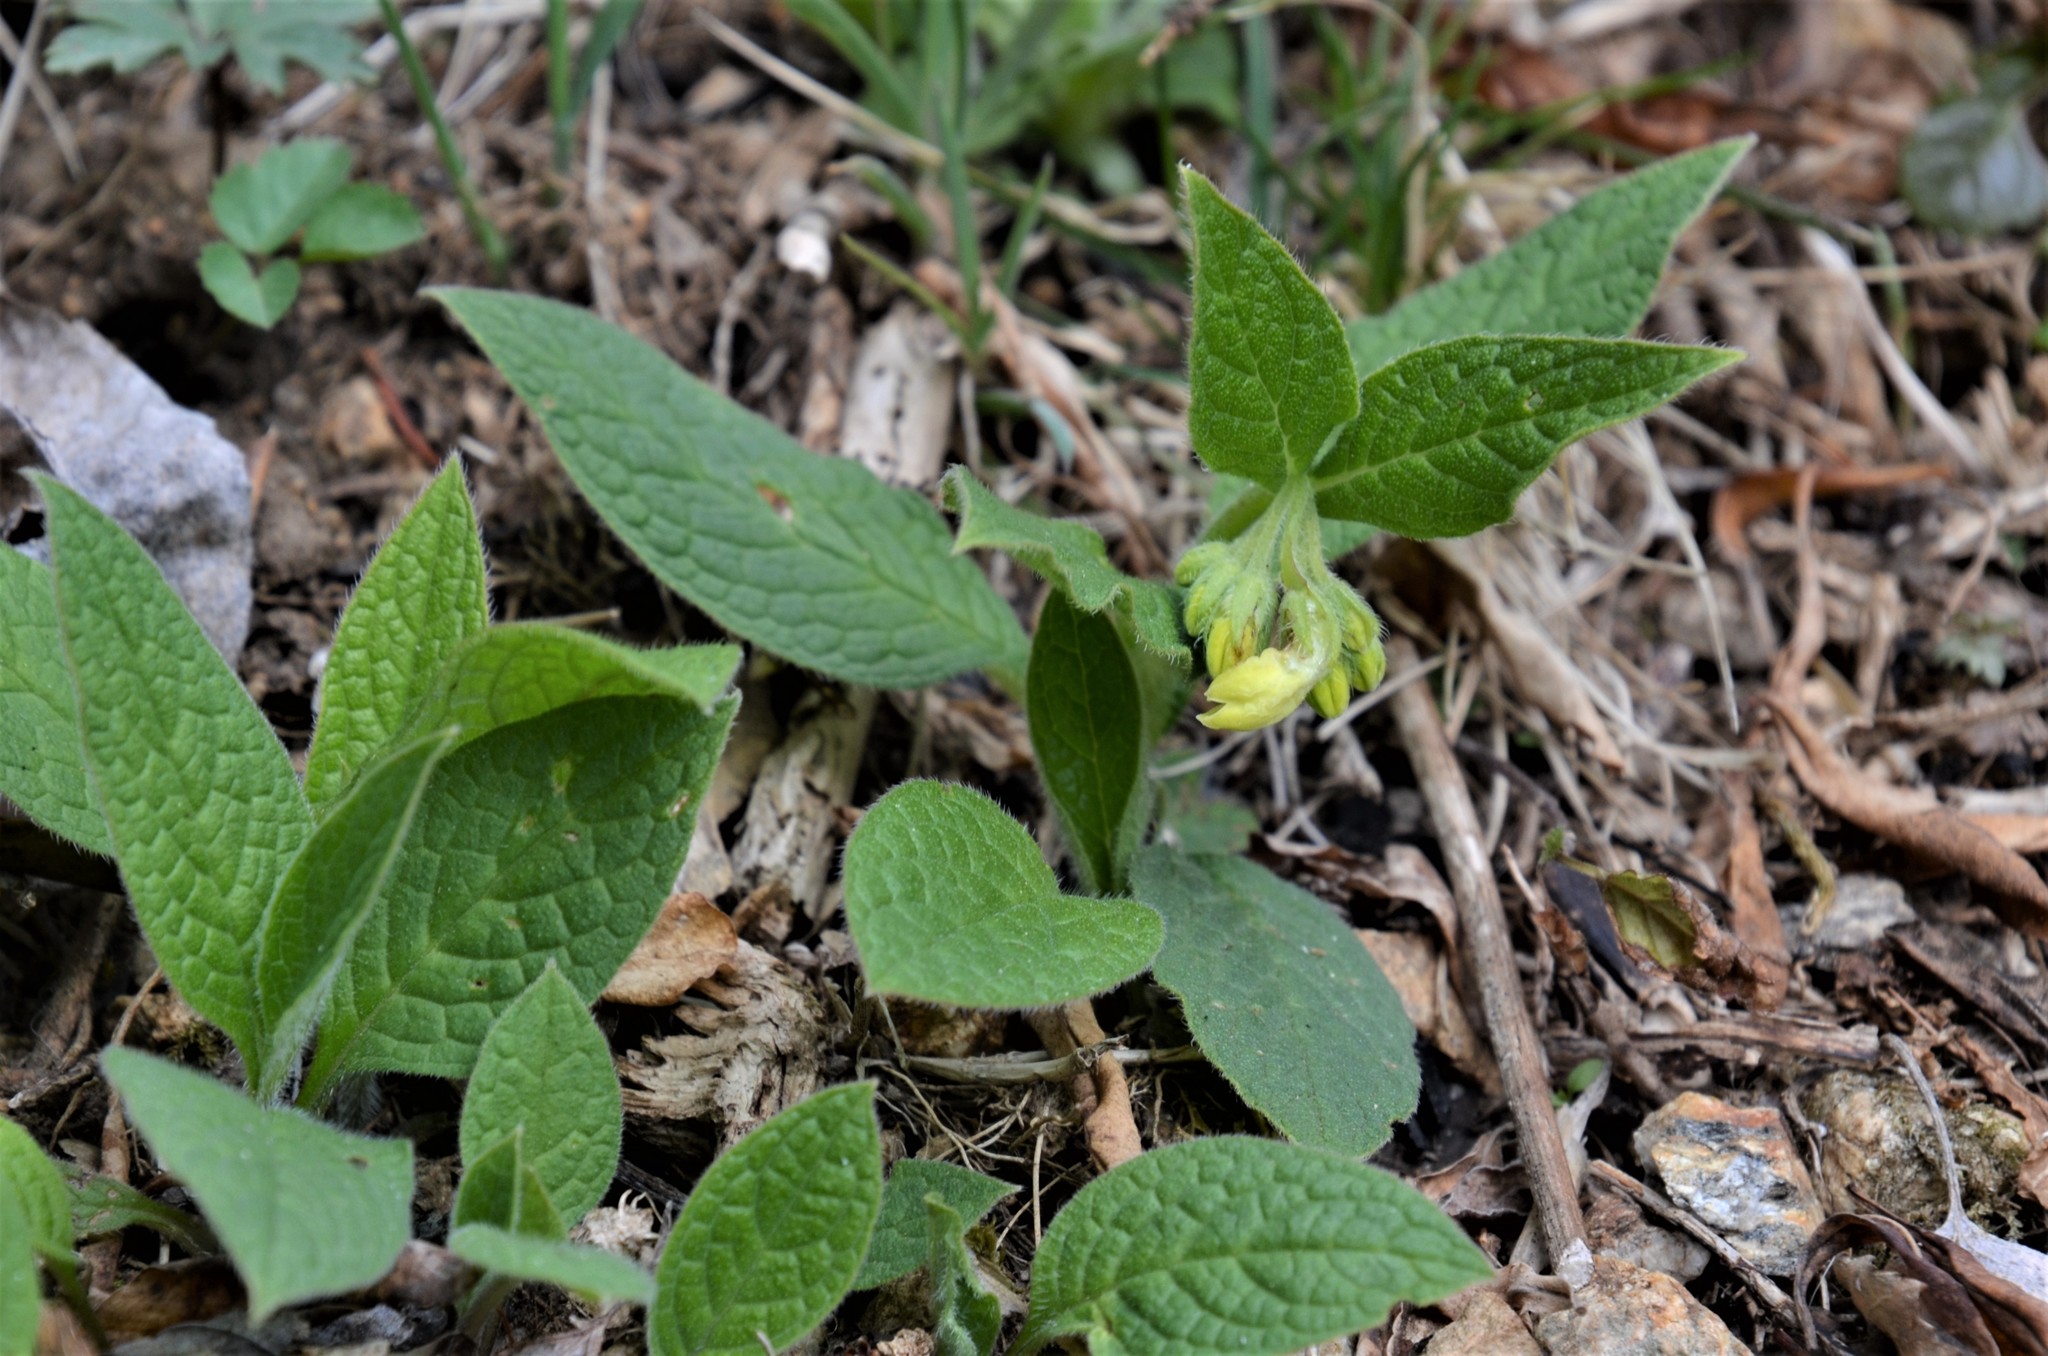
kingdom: Plantae
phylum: Tracheophyta
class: Magnoliopsida
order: Boraginales
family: Boraginaceae
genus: Symphytum
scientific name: Symphytum tuberosum
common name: Tuberous comfrey
